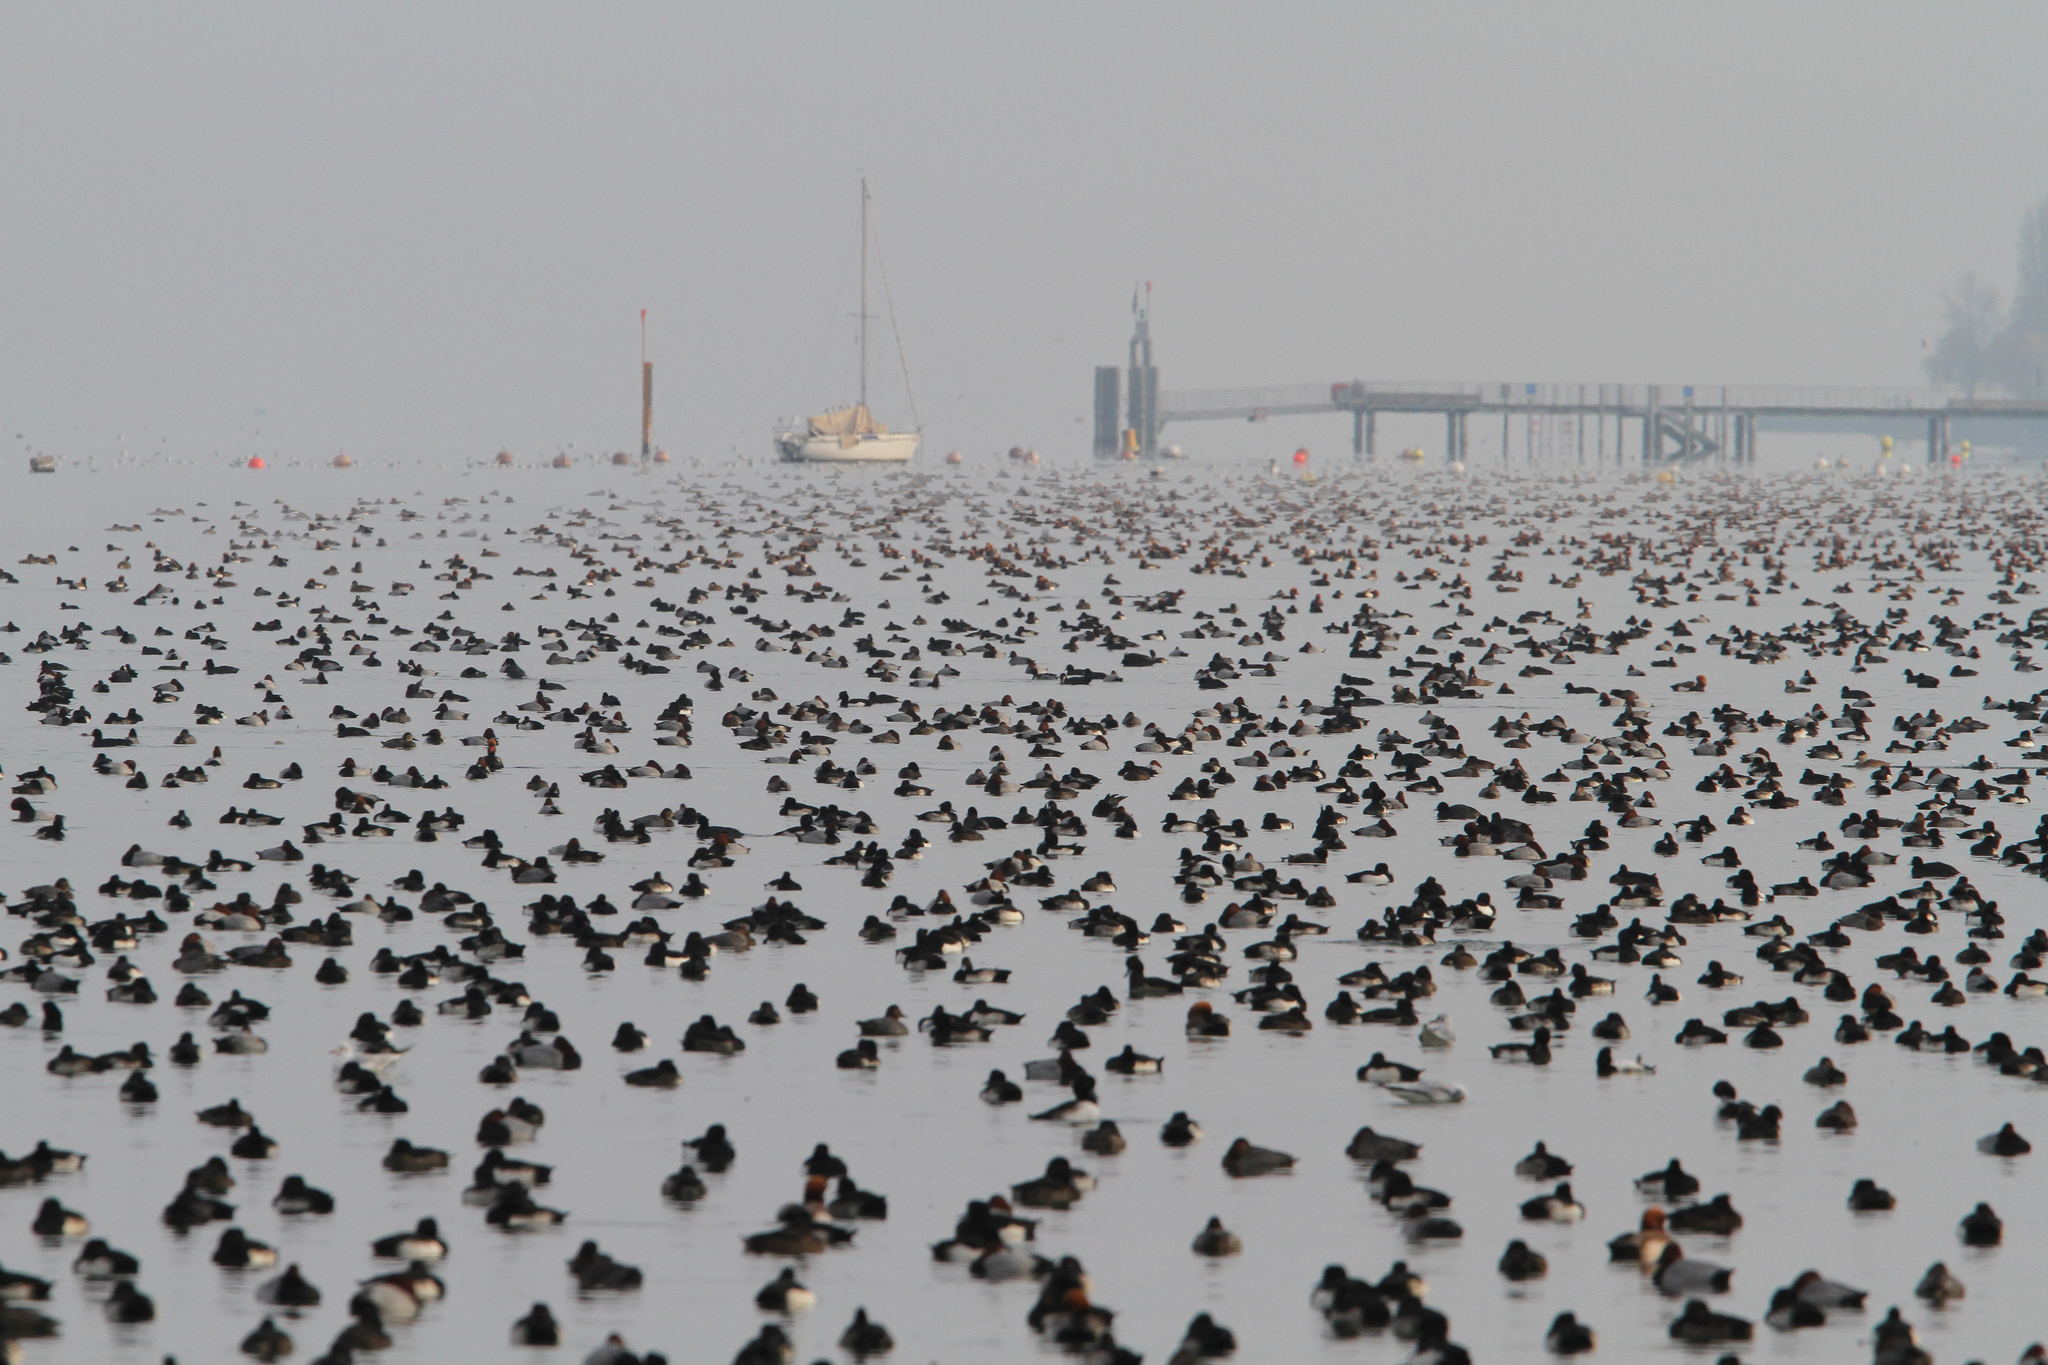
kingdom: Animalia
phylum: Chordata
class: Aves
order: Anseriformes
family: Anatidae
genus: Aythya
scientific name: Aythya fuligula
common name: Tufted duck
